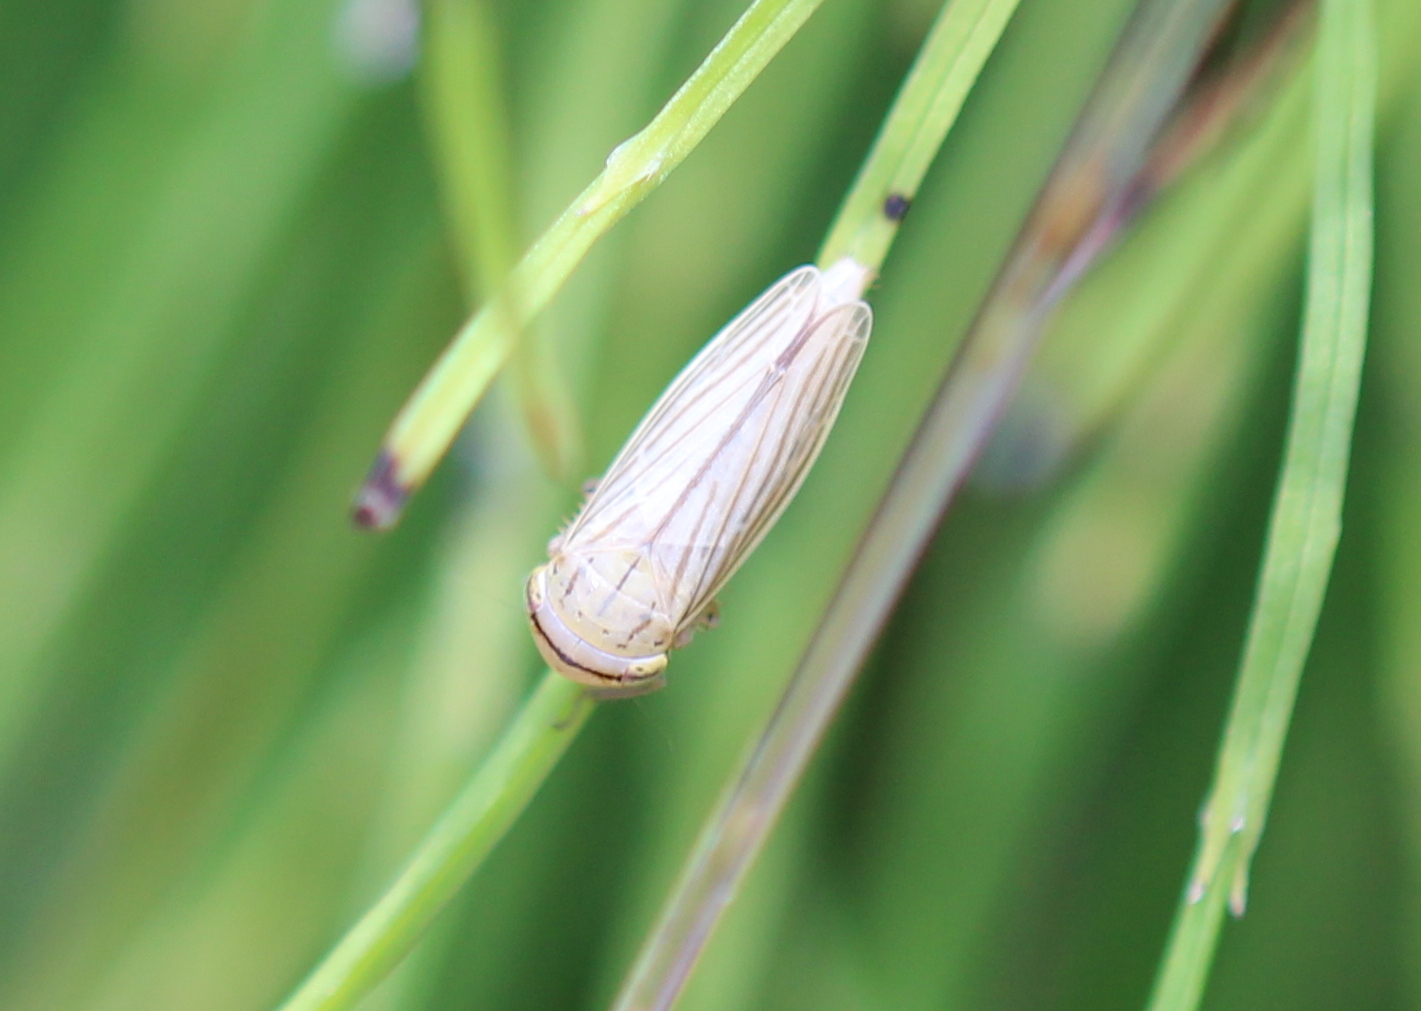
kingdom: Animalia
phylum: Arthropoda
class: Insecta
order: Hemiptera
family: Cicadellidae
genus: Athysanus
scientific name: Athysanus argentarius
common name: Silver leafhopper
